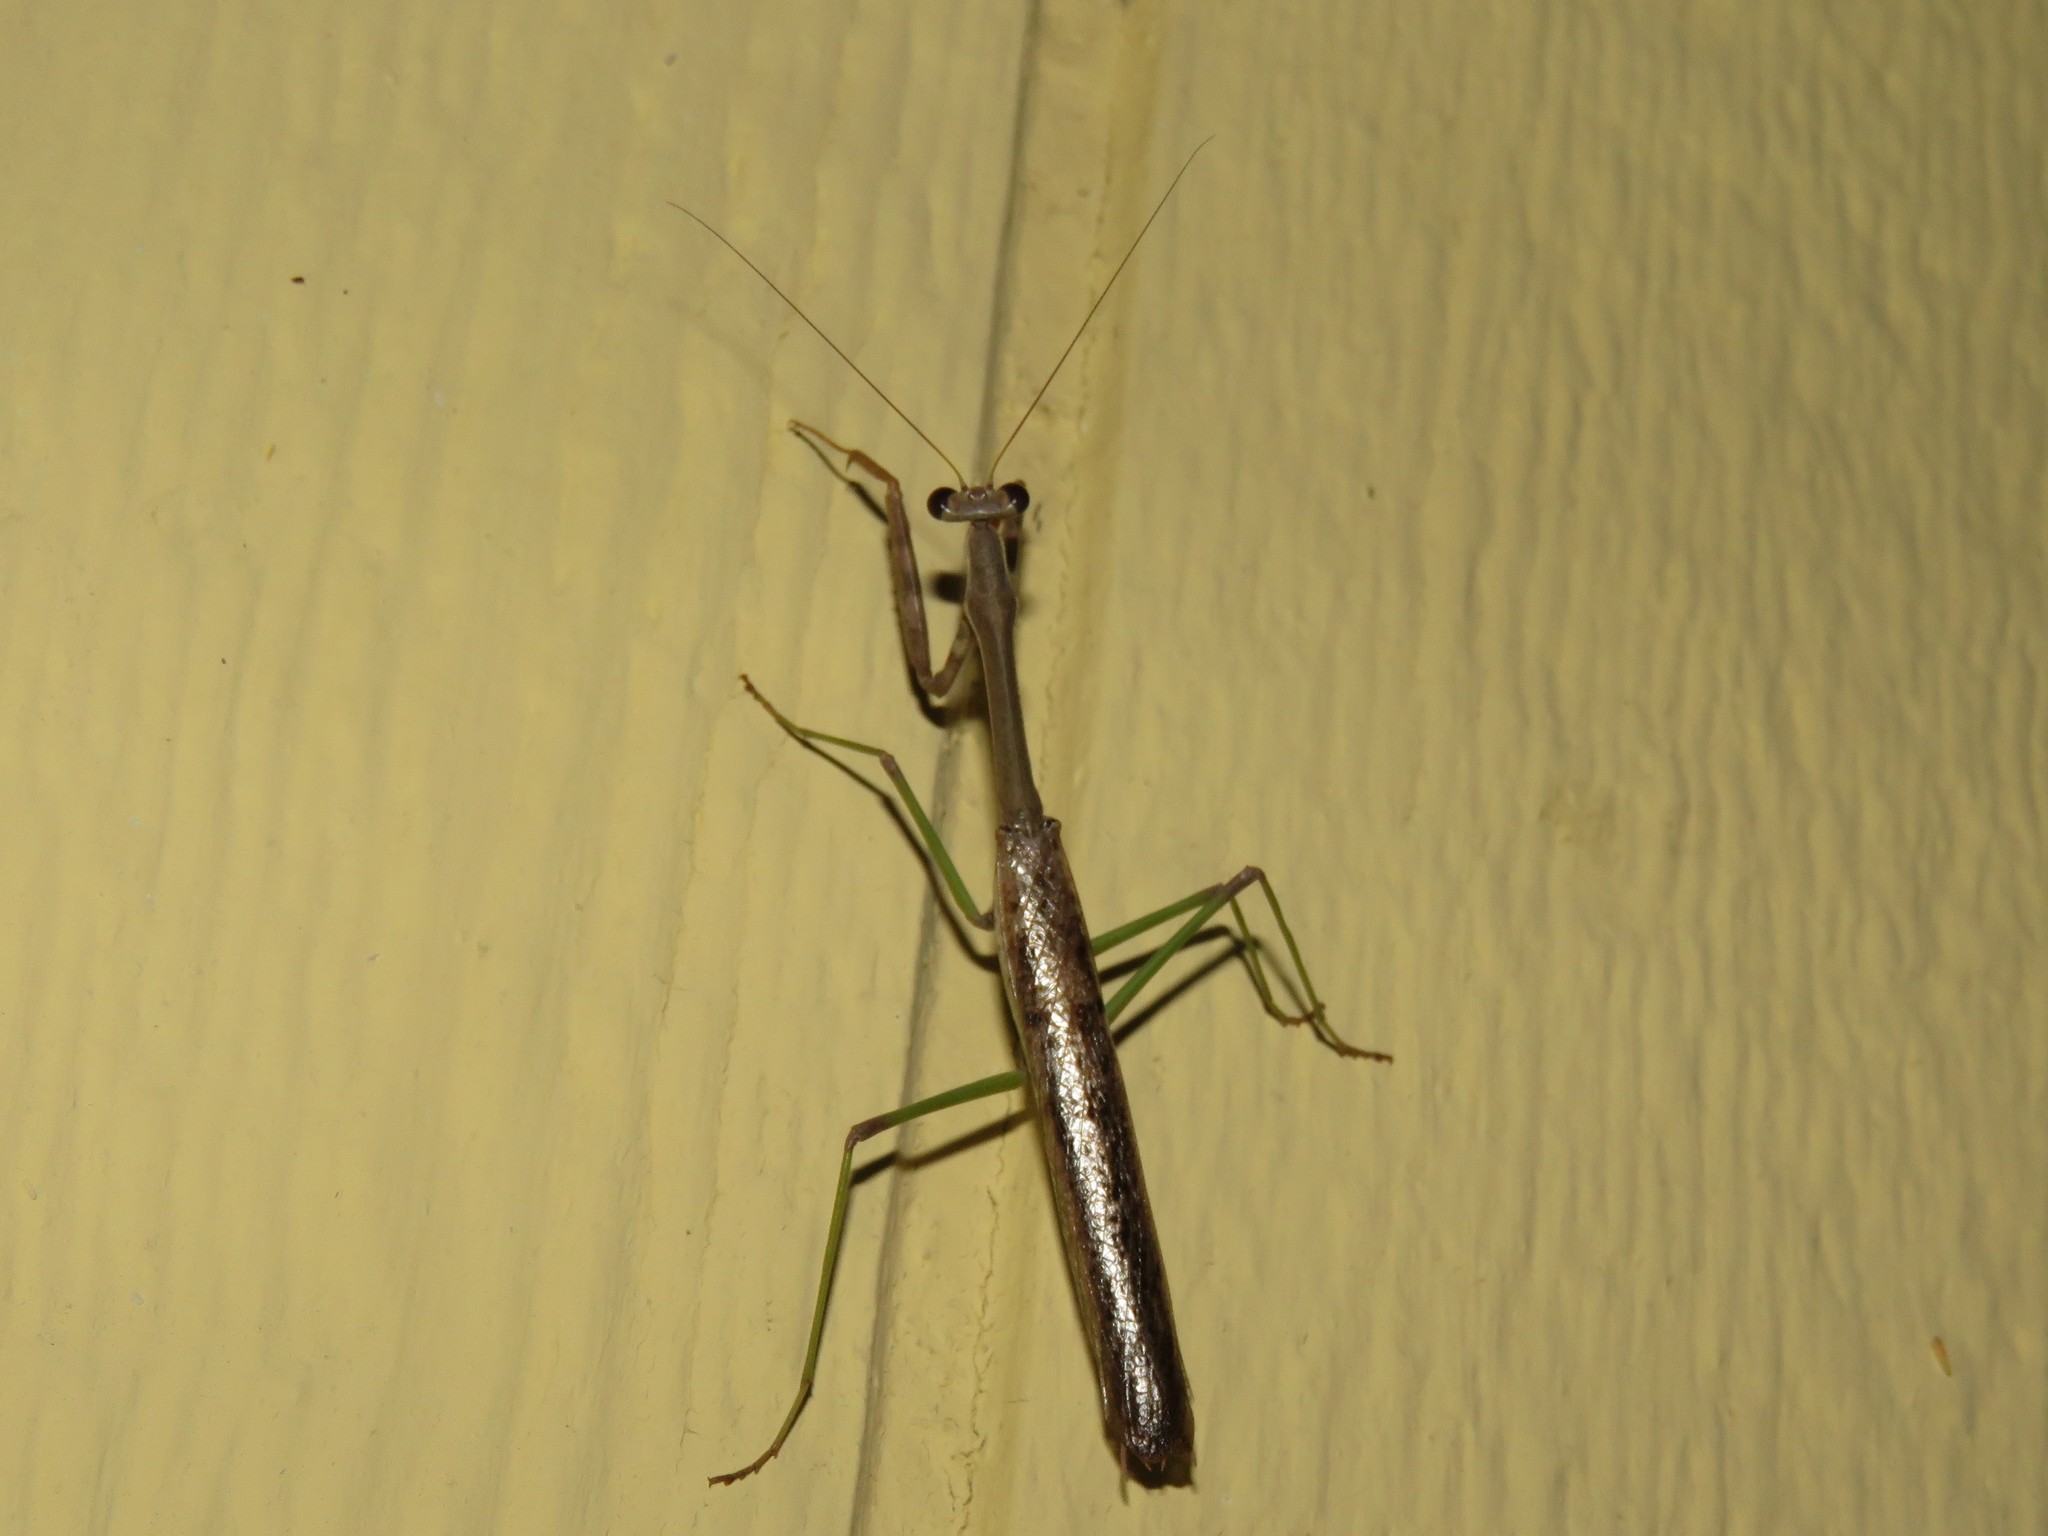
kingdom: Animalia
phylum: Arthropoda
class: Insecta
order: Mantodea
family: Mantidae
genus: Stagmomantis
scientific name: Stagmomantis carolina
